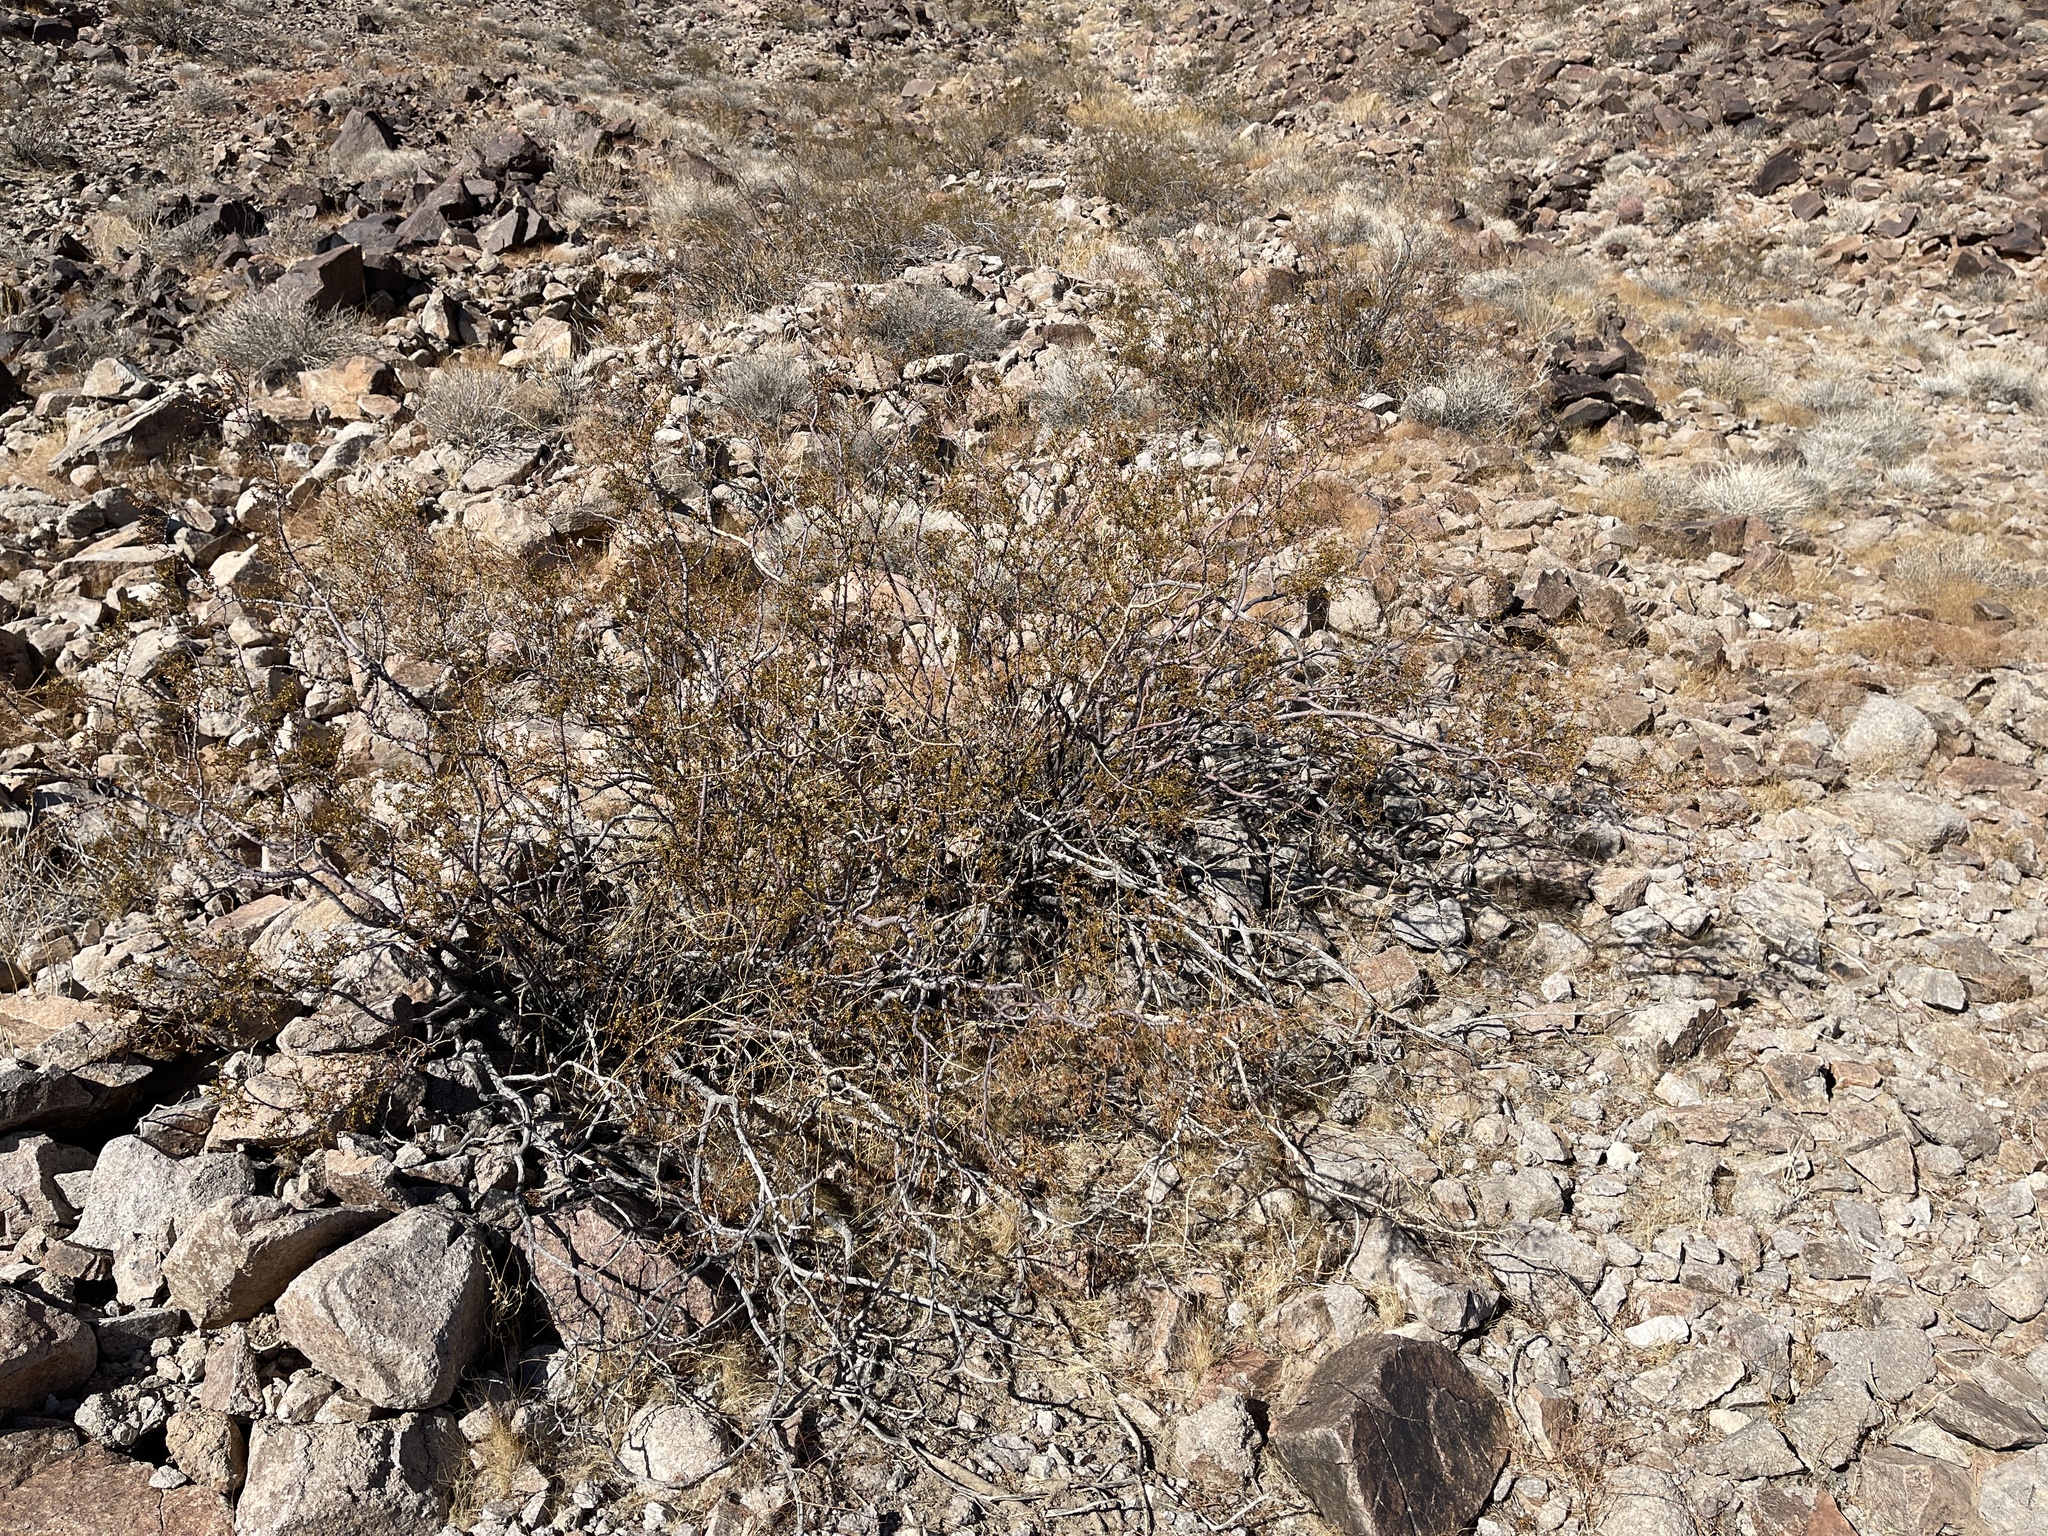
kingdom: Plantae
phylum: Tracheophyta
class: Magnoliopsida
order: Zygophyllales
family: Zygophyllaceae
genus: Larrea
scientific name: Larrea tridentata
